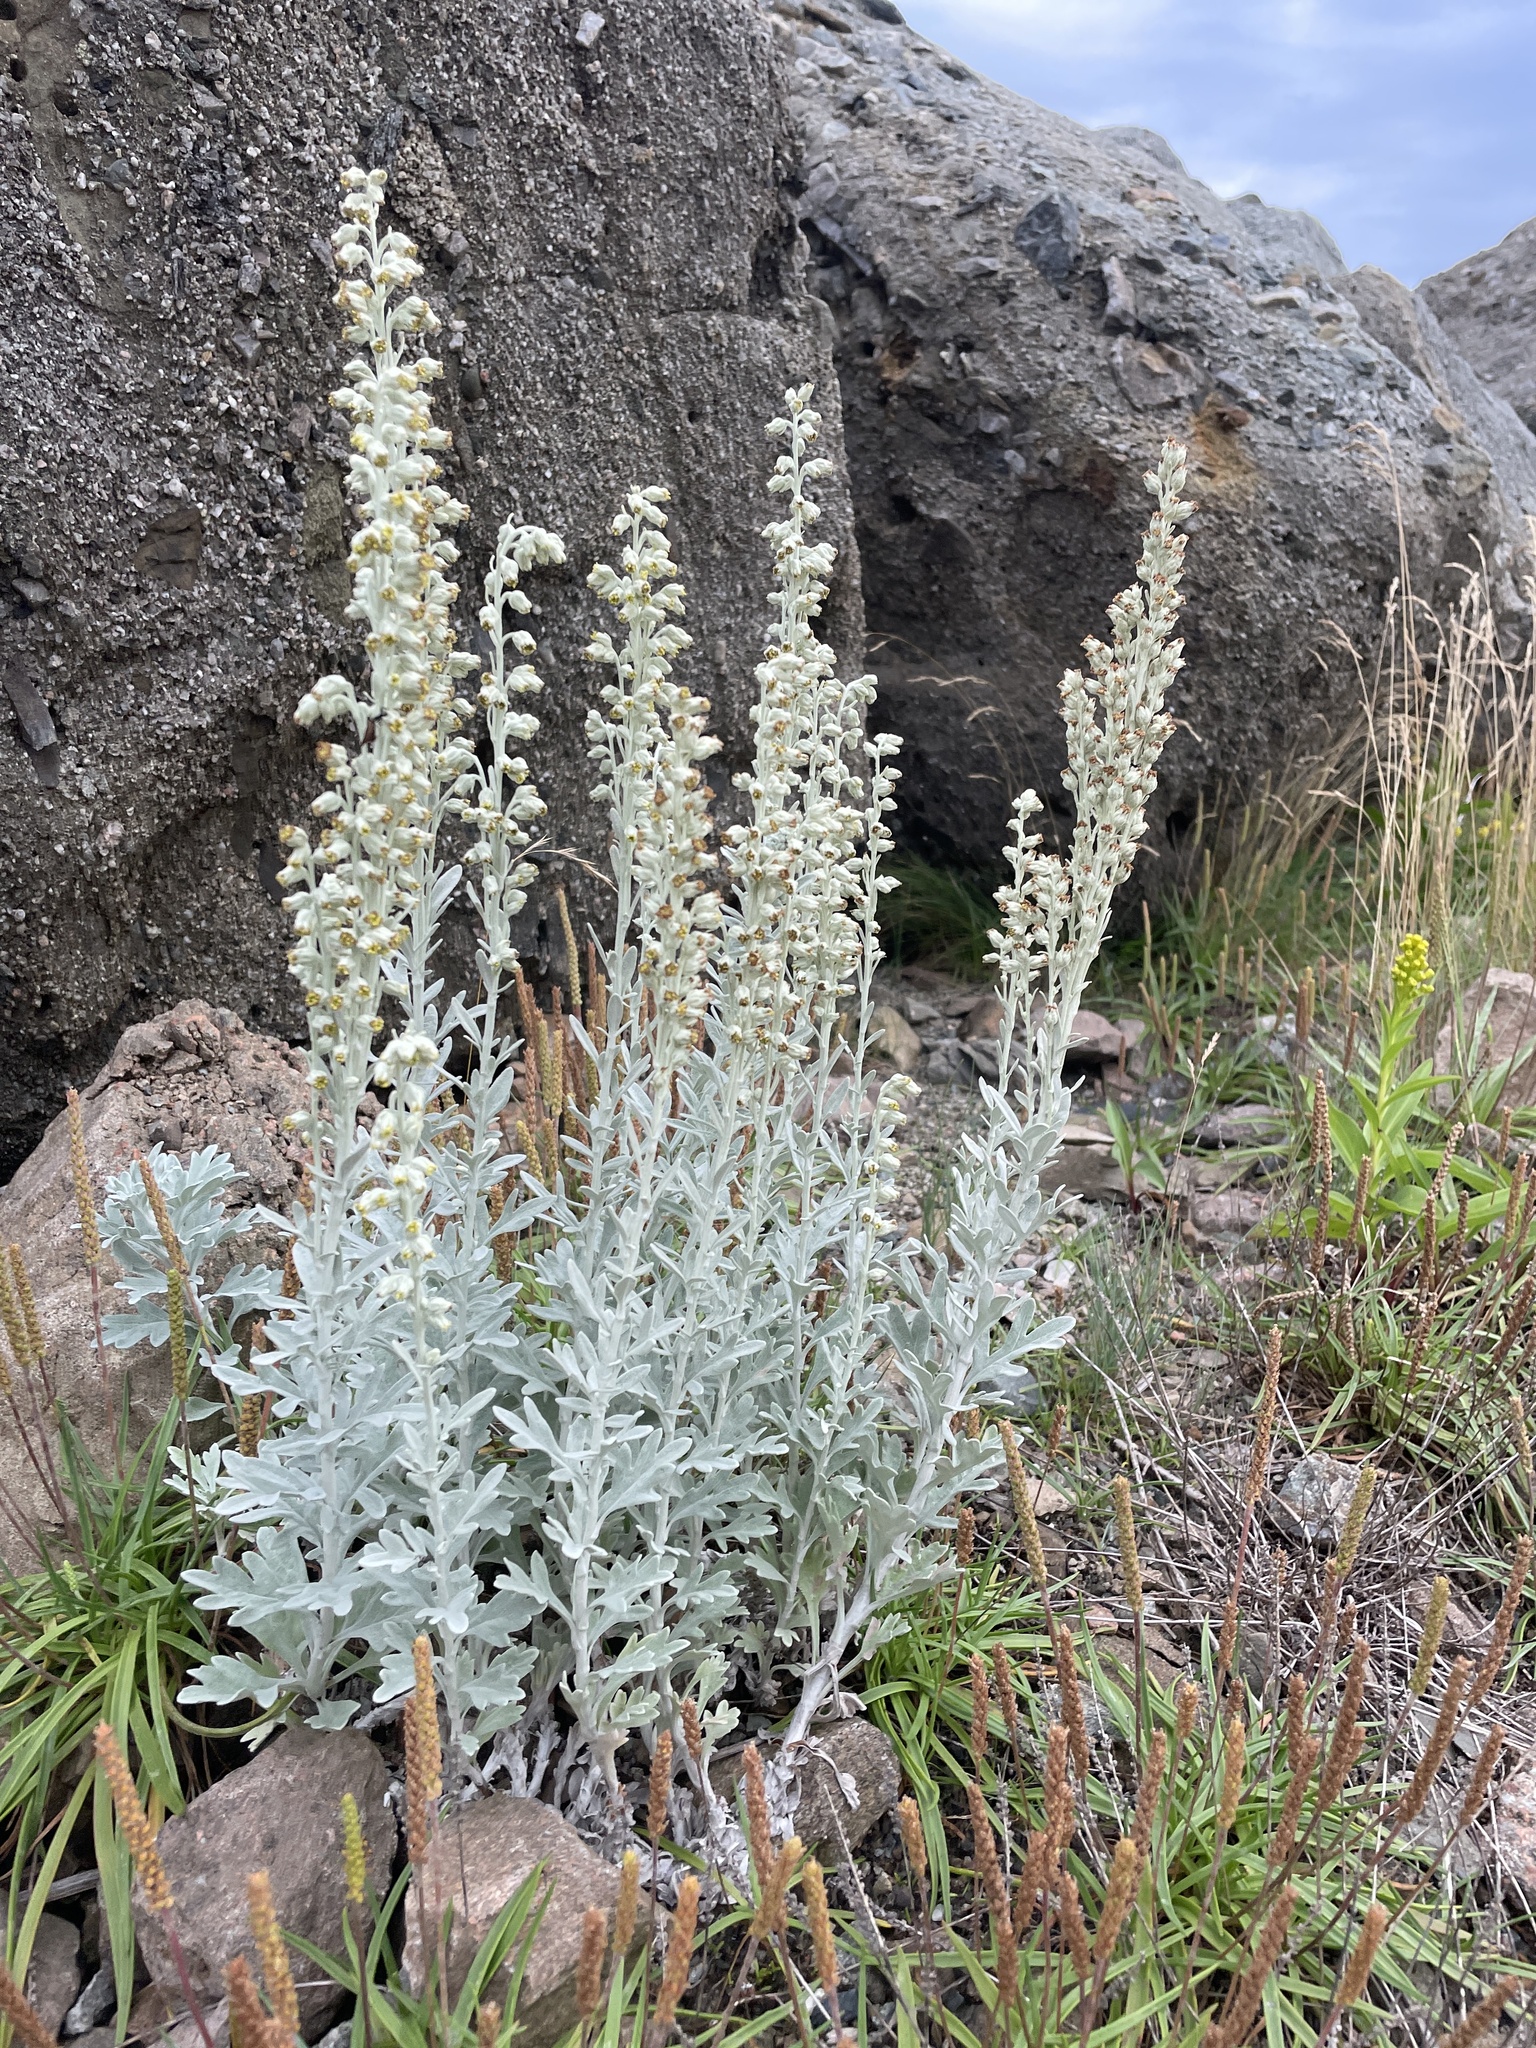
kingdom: Plantae
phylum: Tracheophyta
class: Magnoliopsida
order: Asterales
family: Asteraceae
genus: Artemisia
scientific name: Artemisia stelleriana
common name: Beach wormwood
